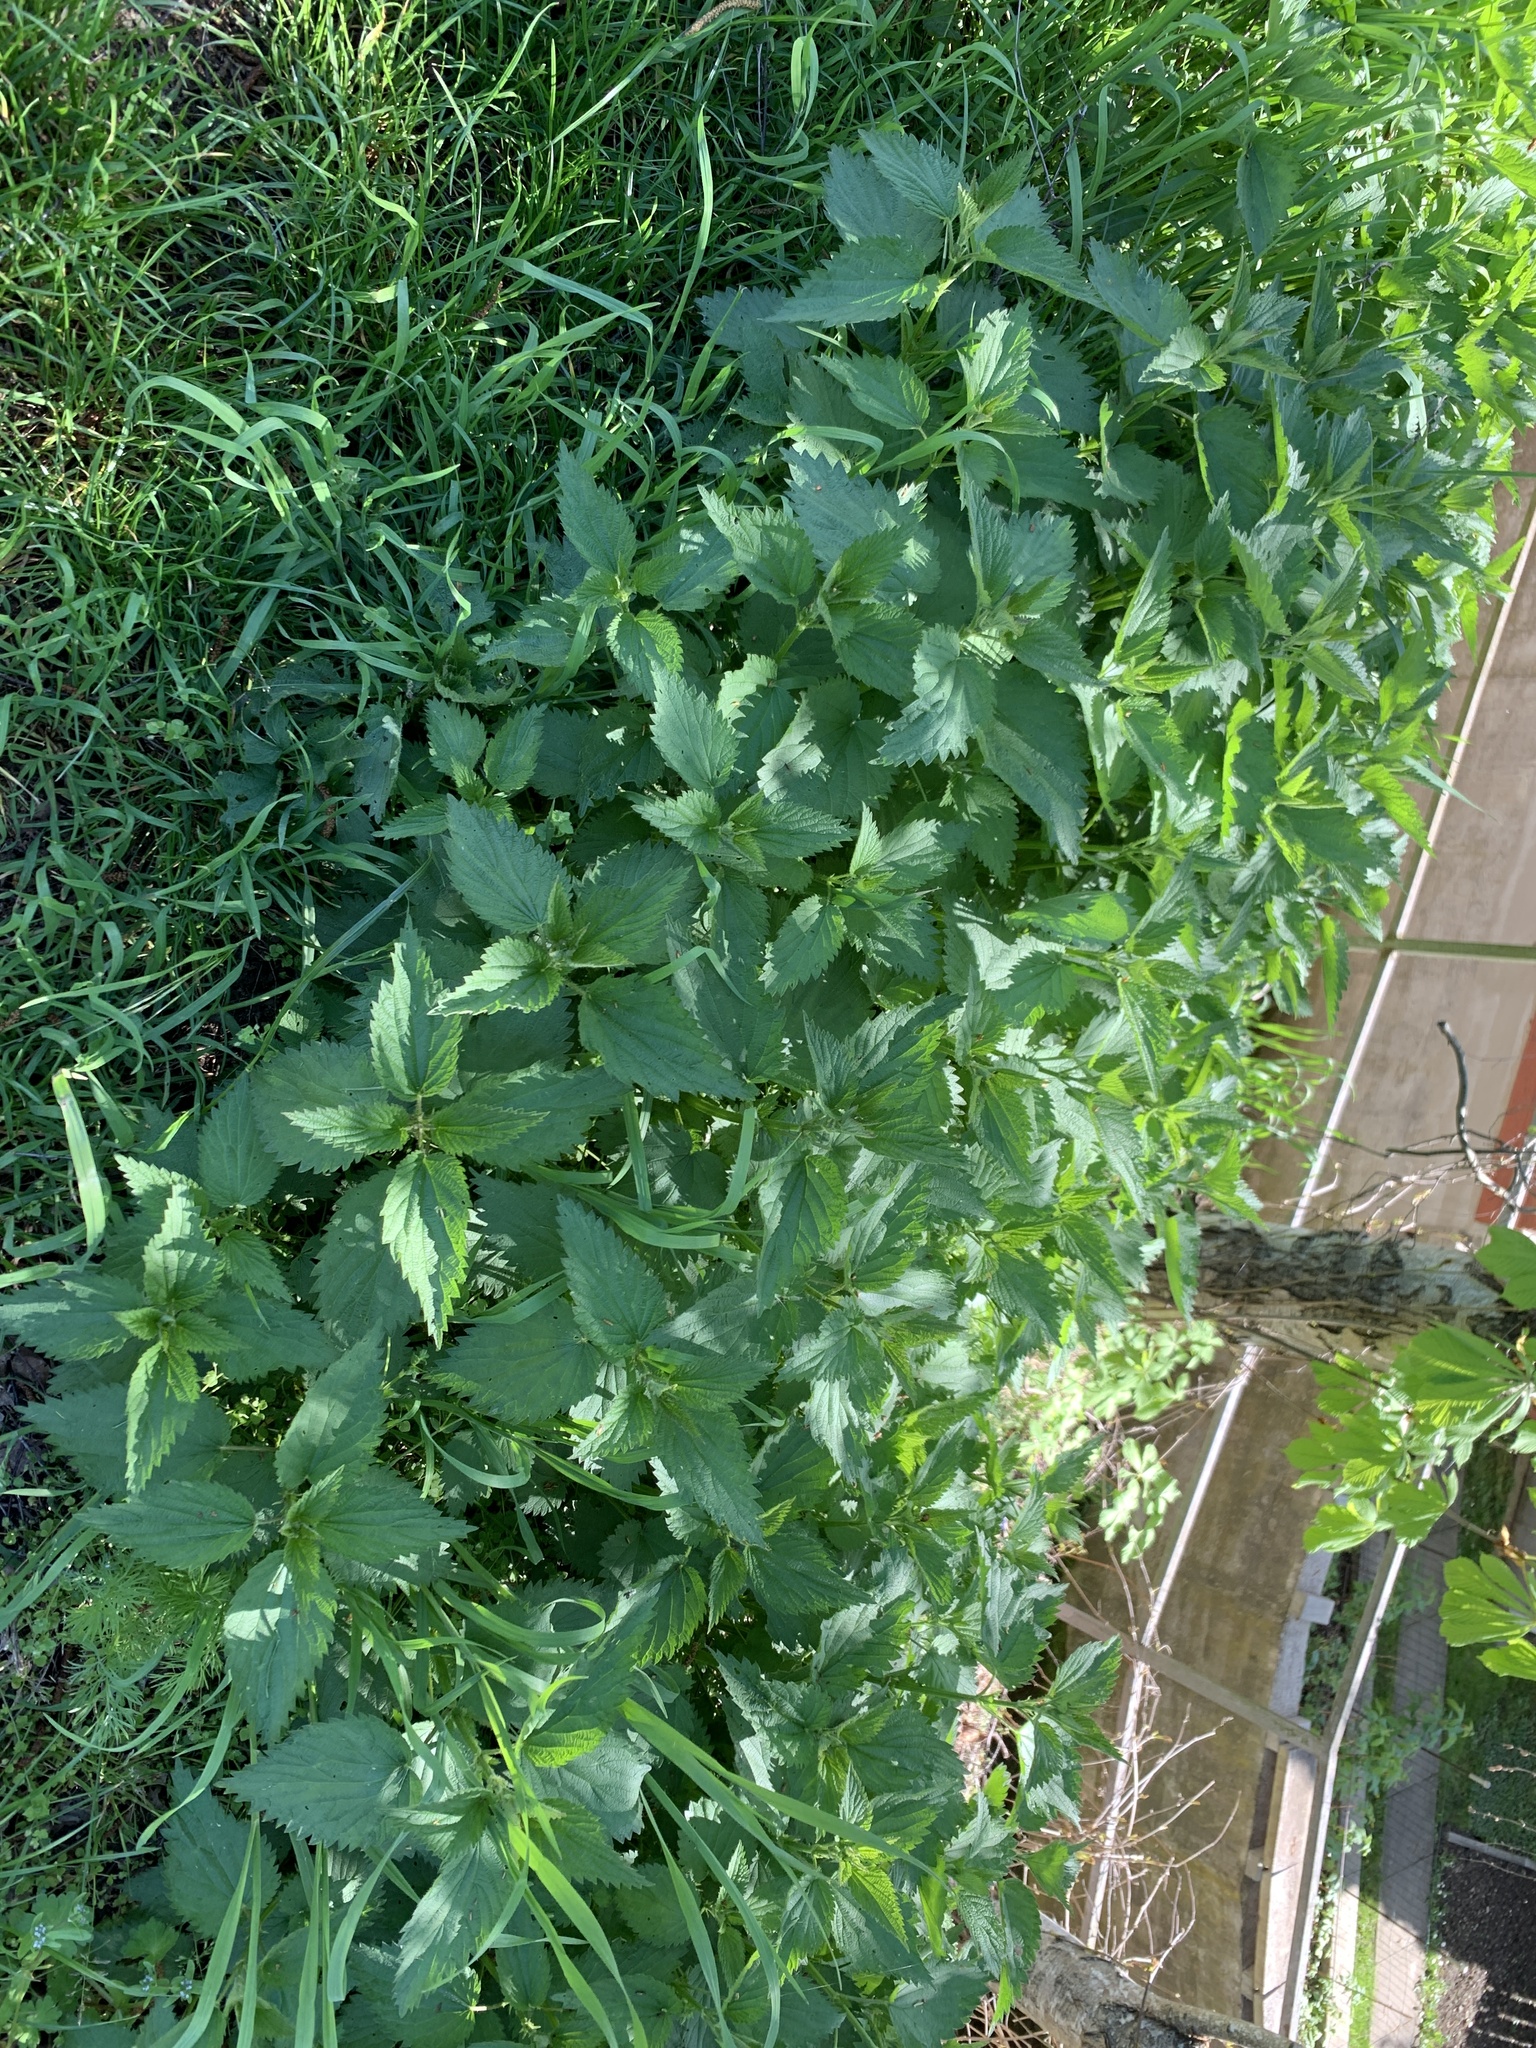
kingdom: Plantae
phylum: Tracheophyta
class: Magnoliopsida
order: Rosales
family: Urticaceae
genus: Urtica
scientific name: Urtica dioica
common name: Common nettle
